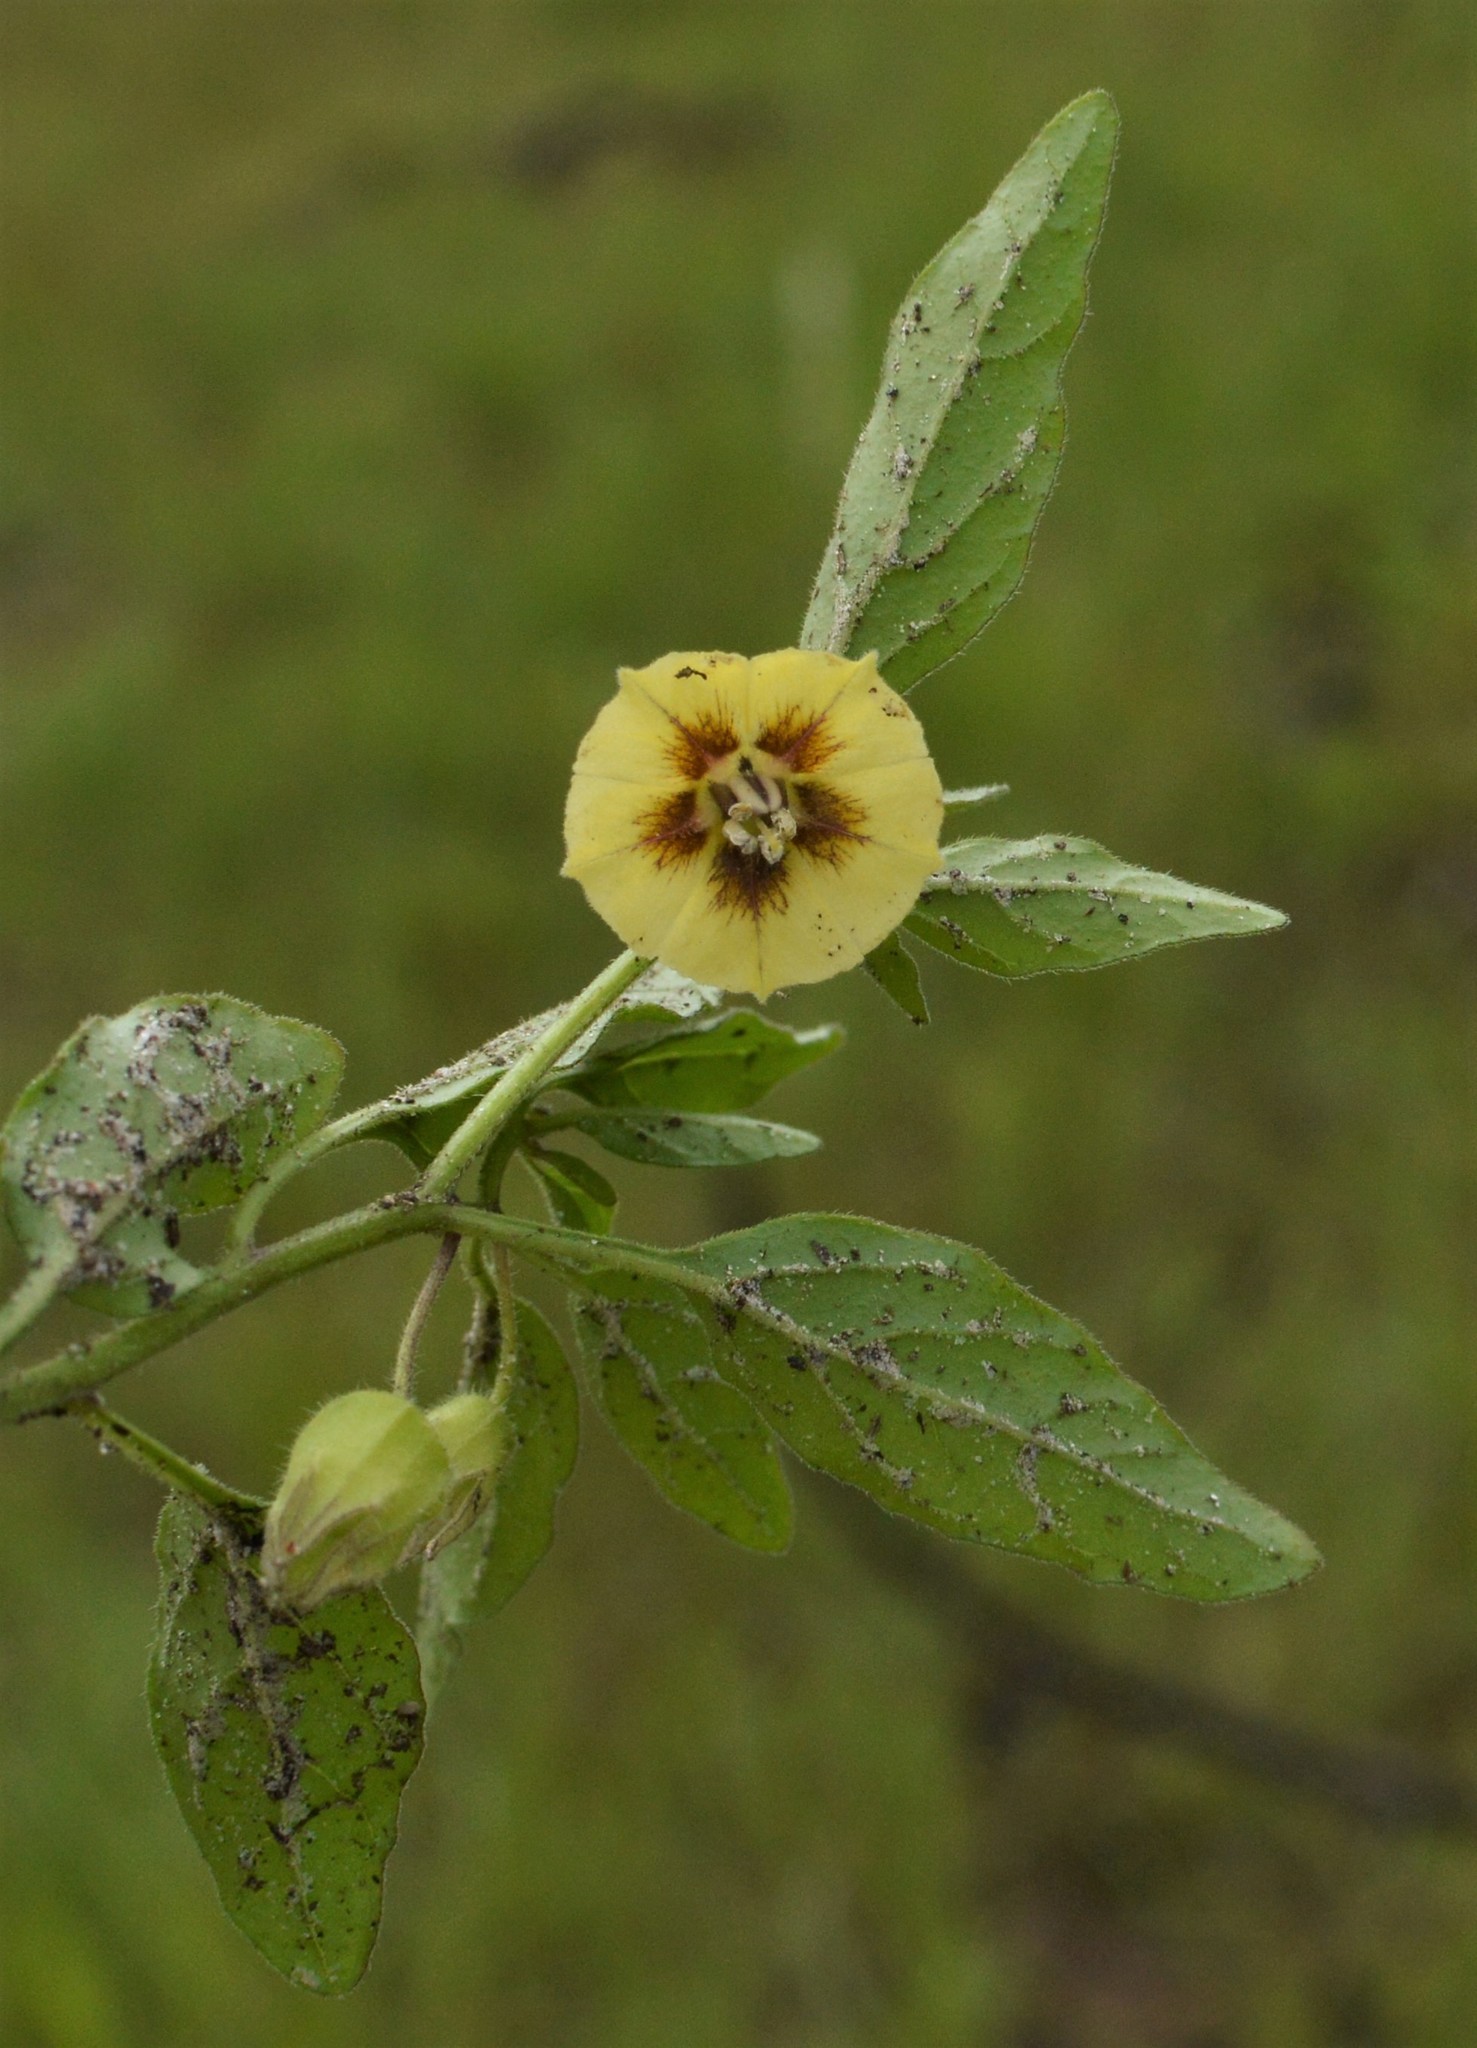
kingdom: Plantae
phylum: Tracheophyta
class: Magnoliopsida
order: Solanales
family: Solanaceae
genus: Physalis
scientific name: Physalis virginiana
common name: Virginia ground-cherry
